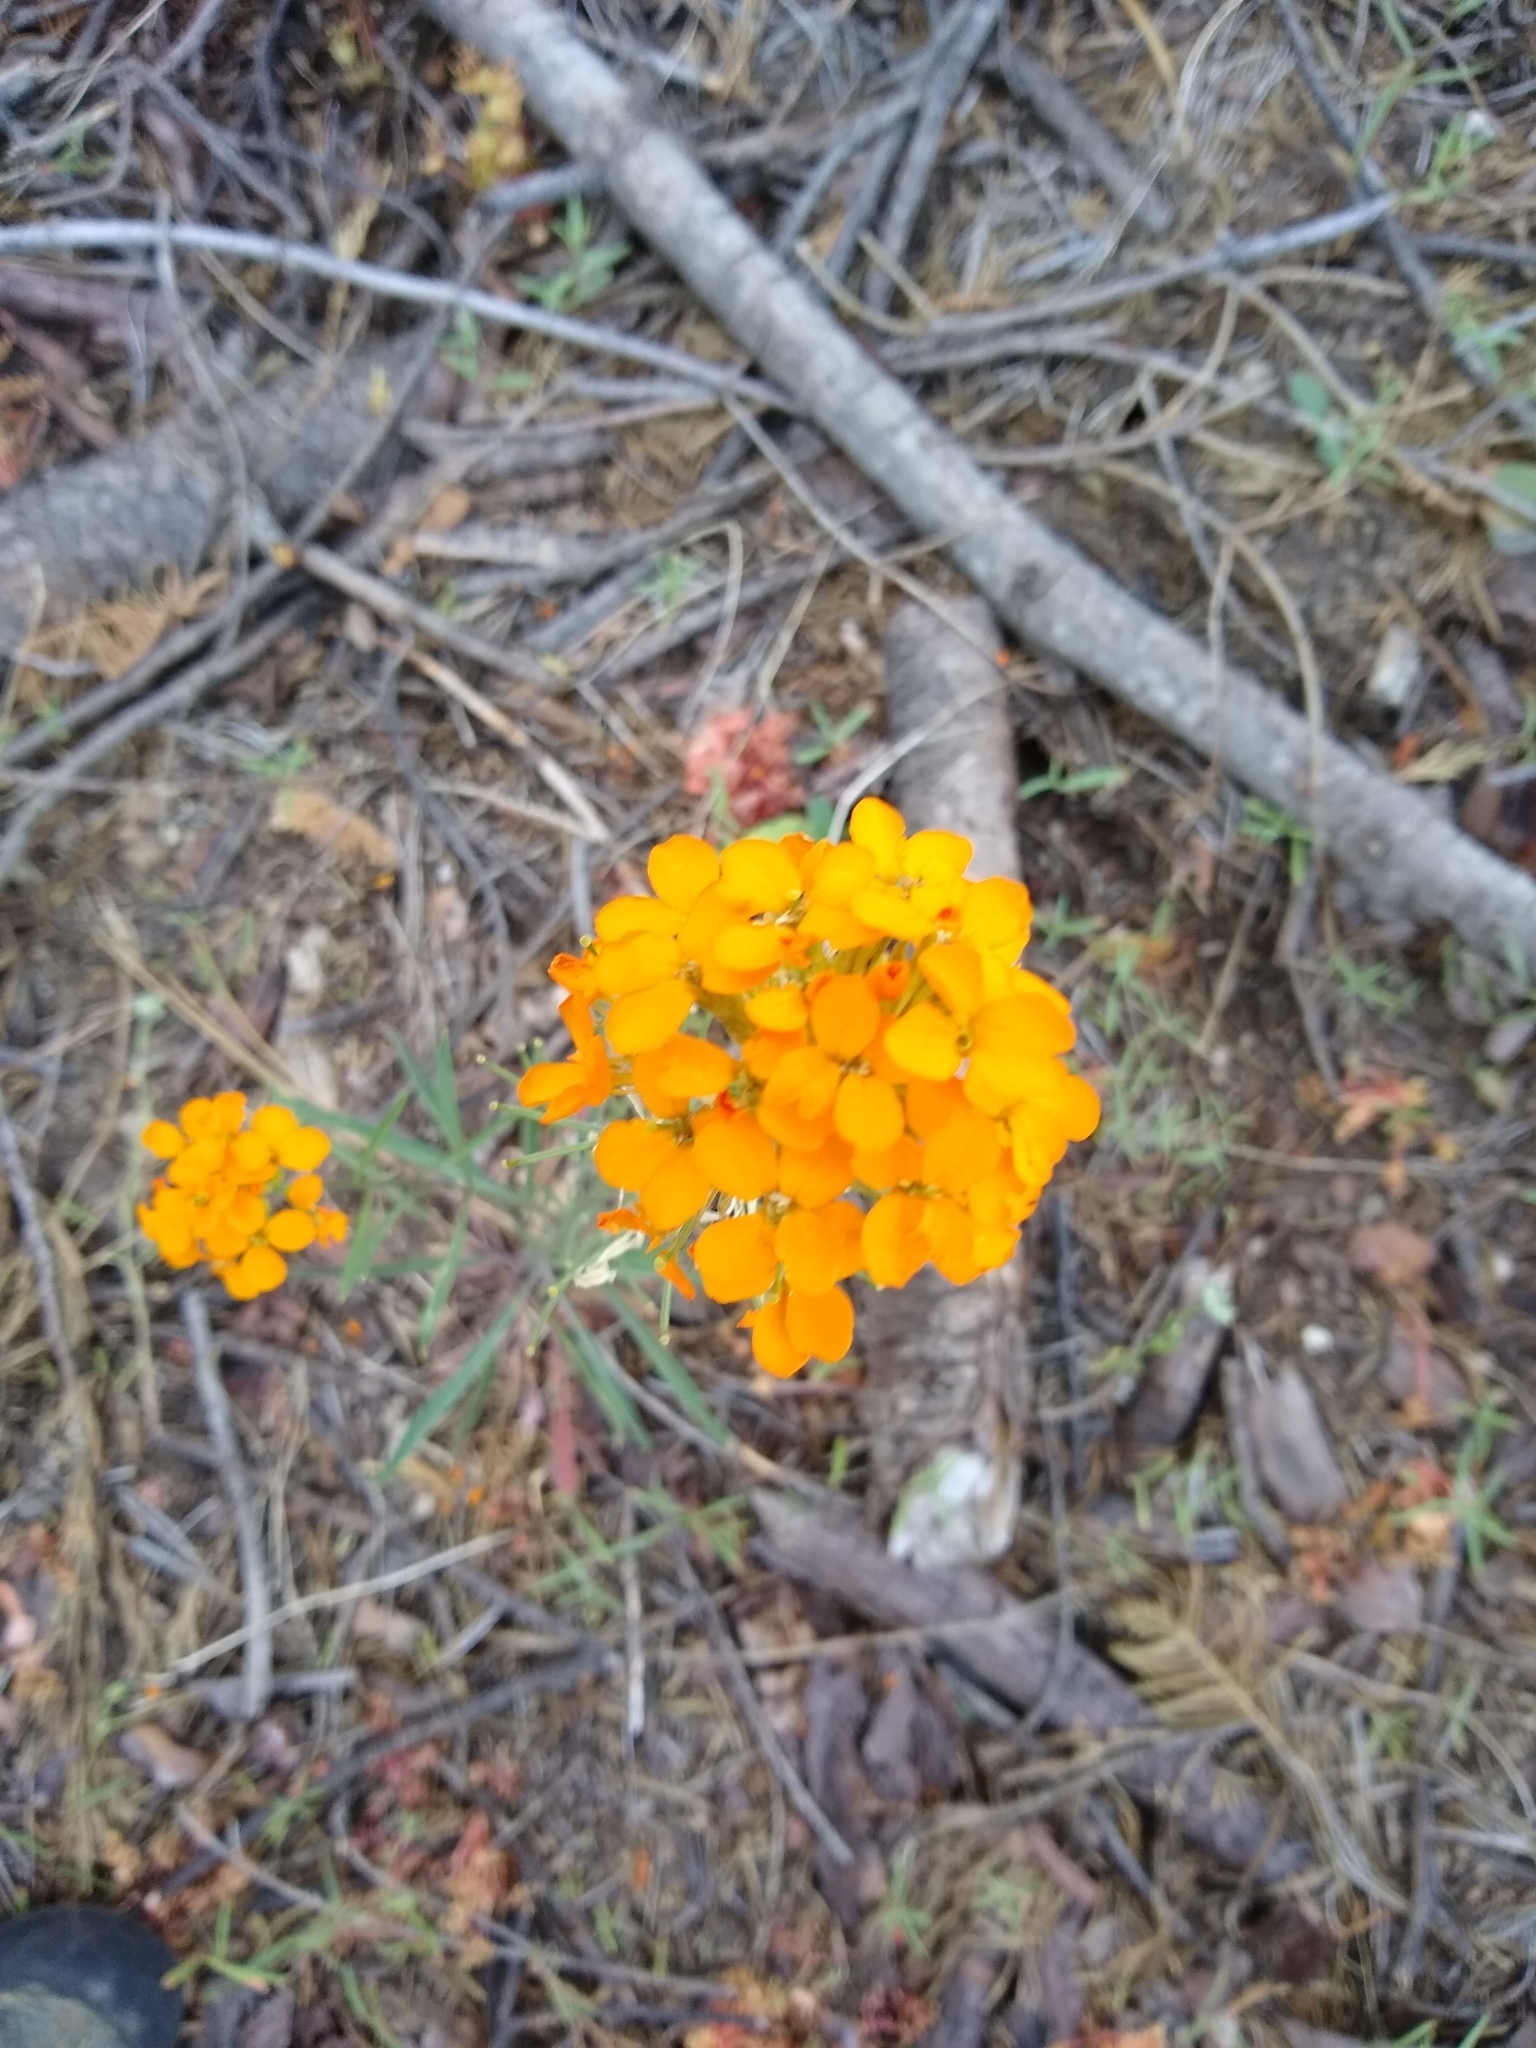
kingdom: Plantae
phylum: Tracheophyta
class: Magnoliopsida
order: Brassicales
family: Brassicaceae
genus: Erysimum
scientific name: Erysimum capitatum
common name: Western wallflower
